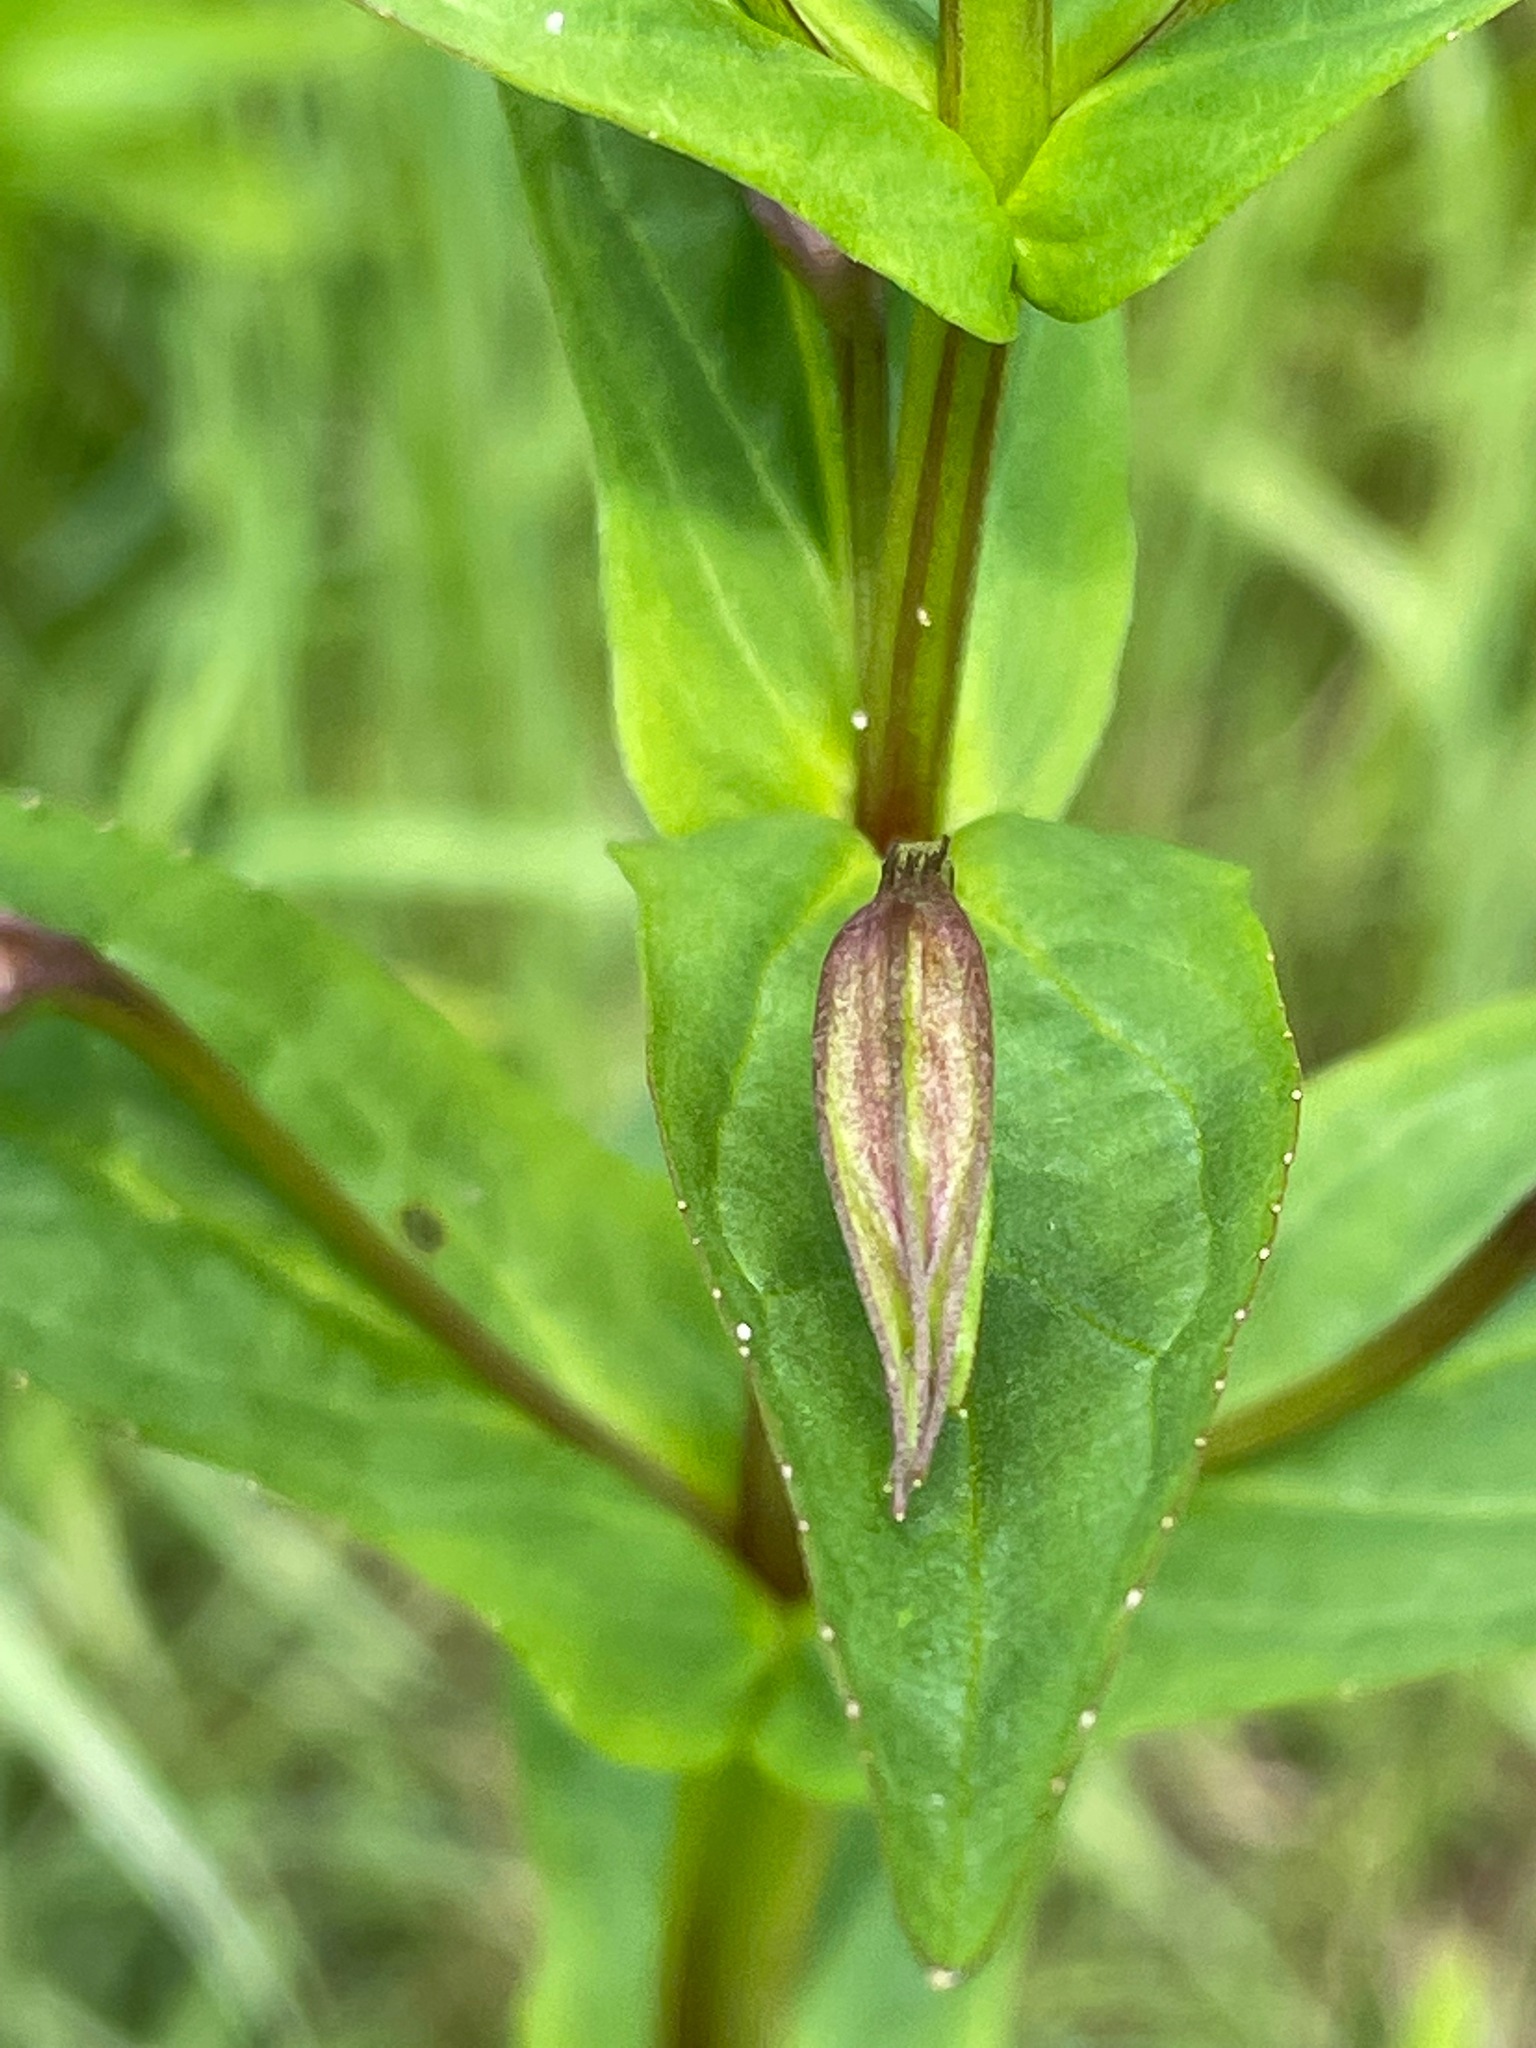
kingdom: Plantae
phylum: Tracheophyta
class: Magnoliopsida
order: Lamiales
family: Phrymaceae
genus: Mimulus
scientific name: Mimulus ringens
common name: Allegheny monkeyflower
